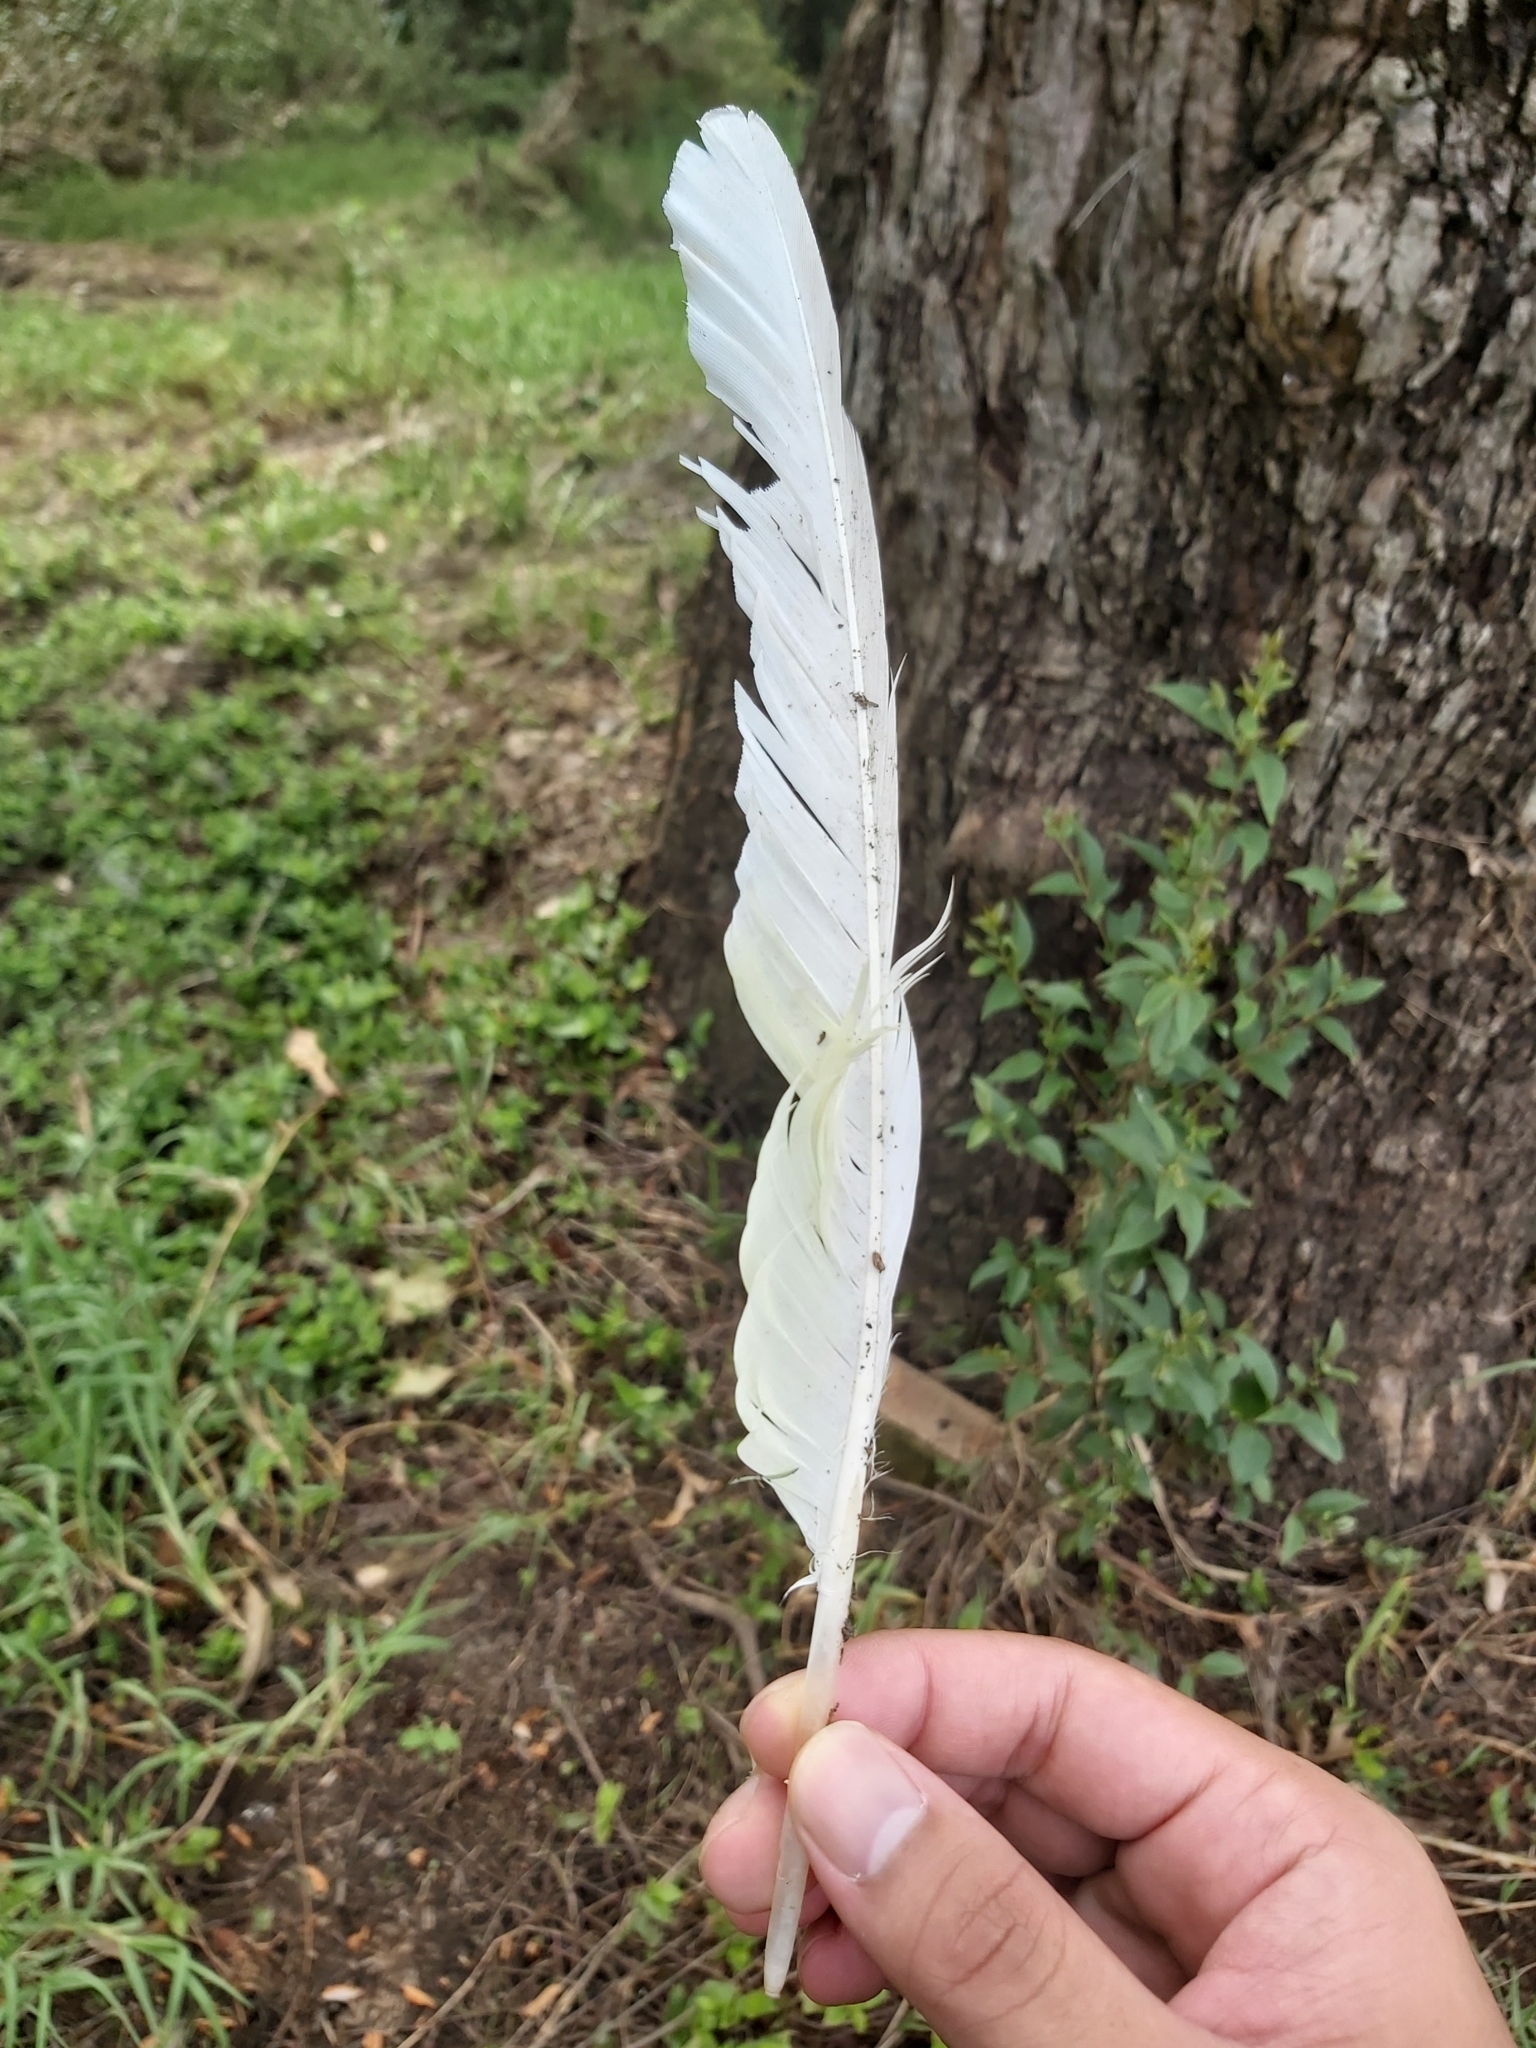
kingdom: Animalia
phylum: Chordata
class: Aves
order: Psittaciformes
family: Psittacidae
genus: Cacatua
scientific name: Cacatua galerita
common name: Sulphur-crested cockatoo
